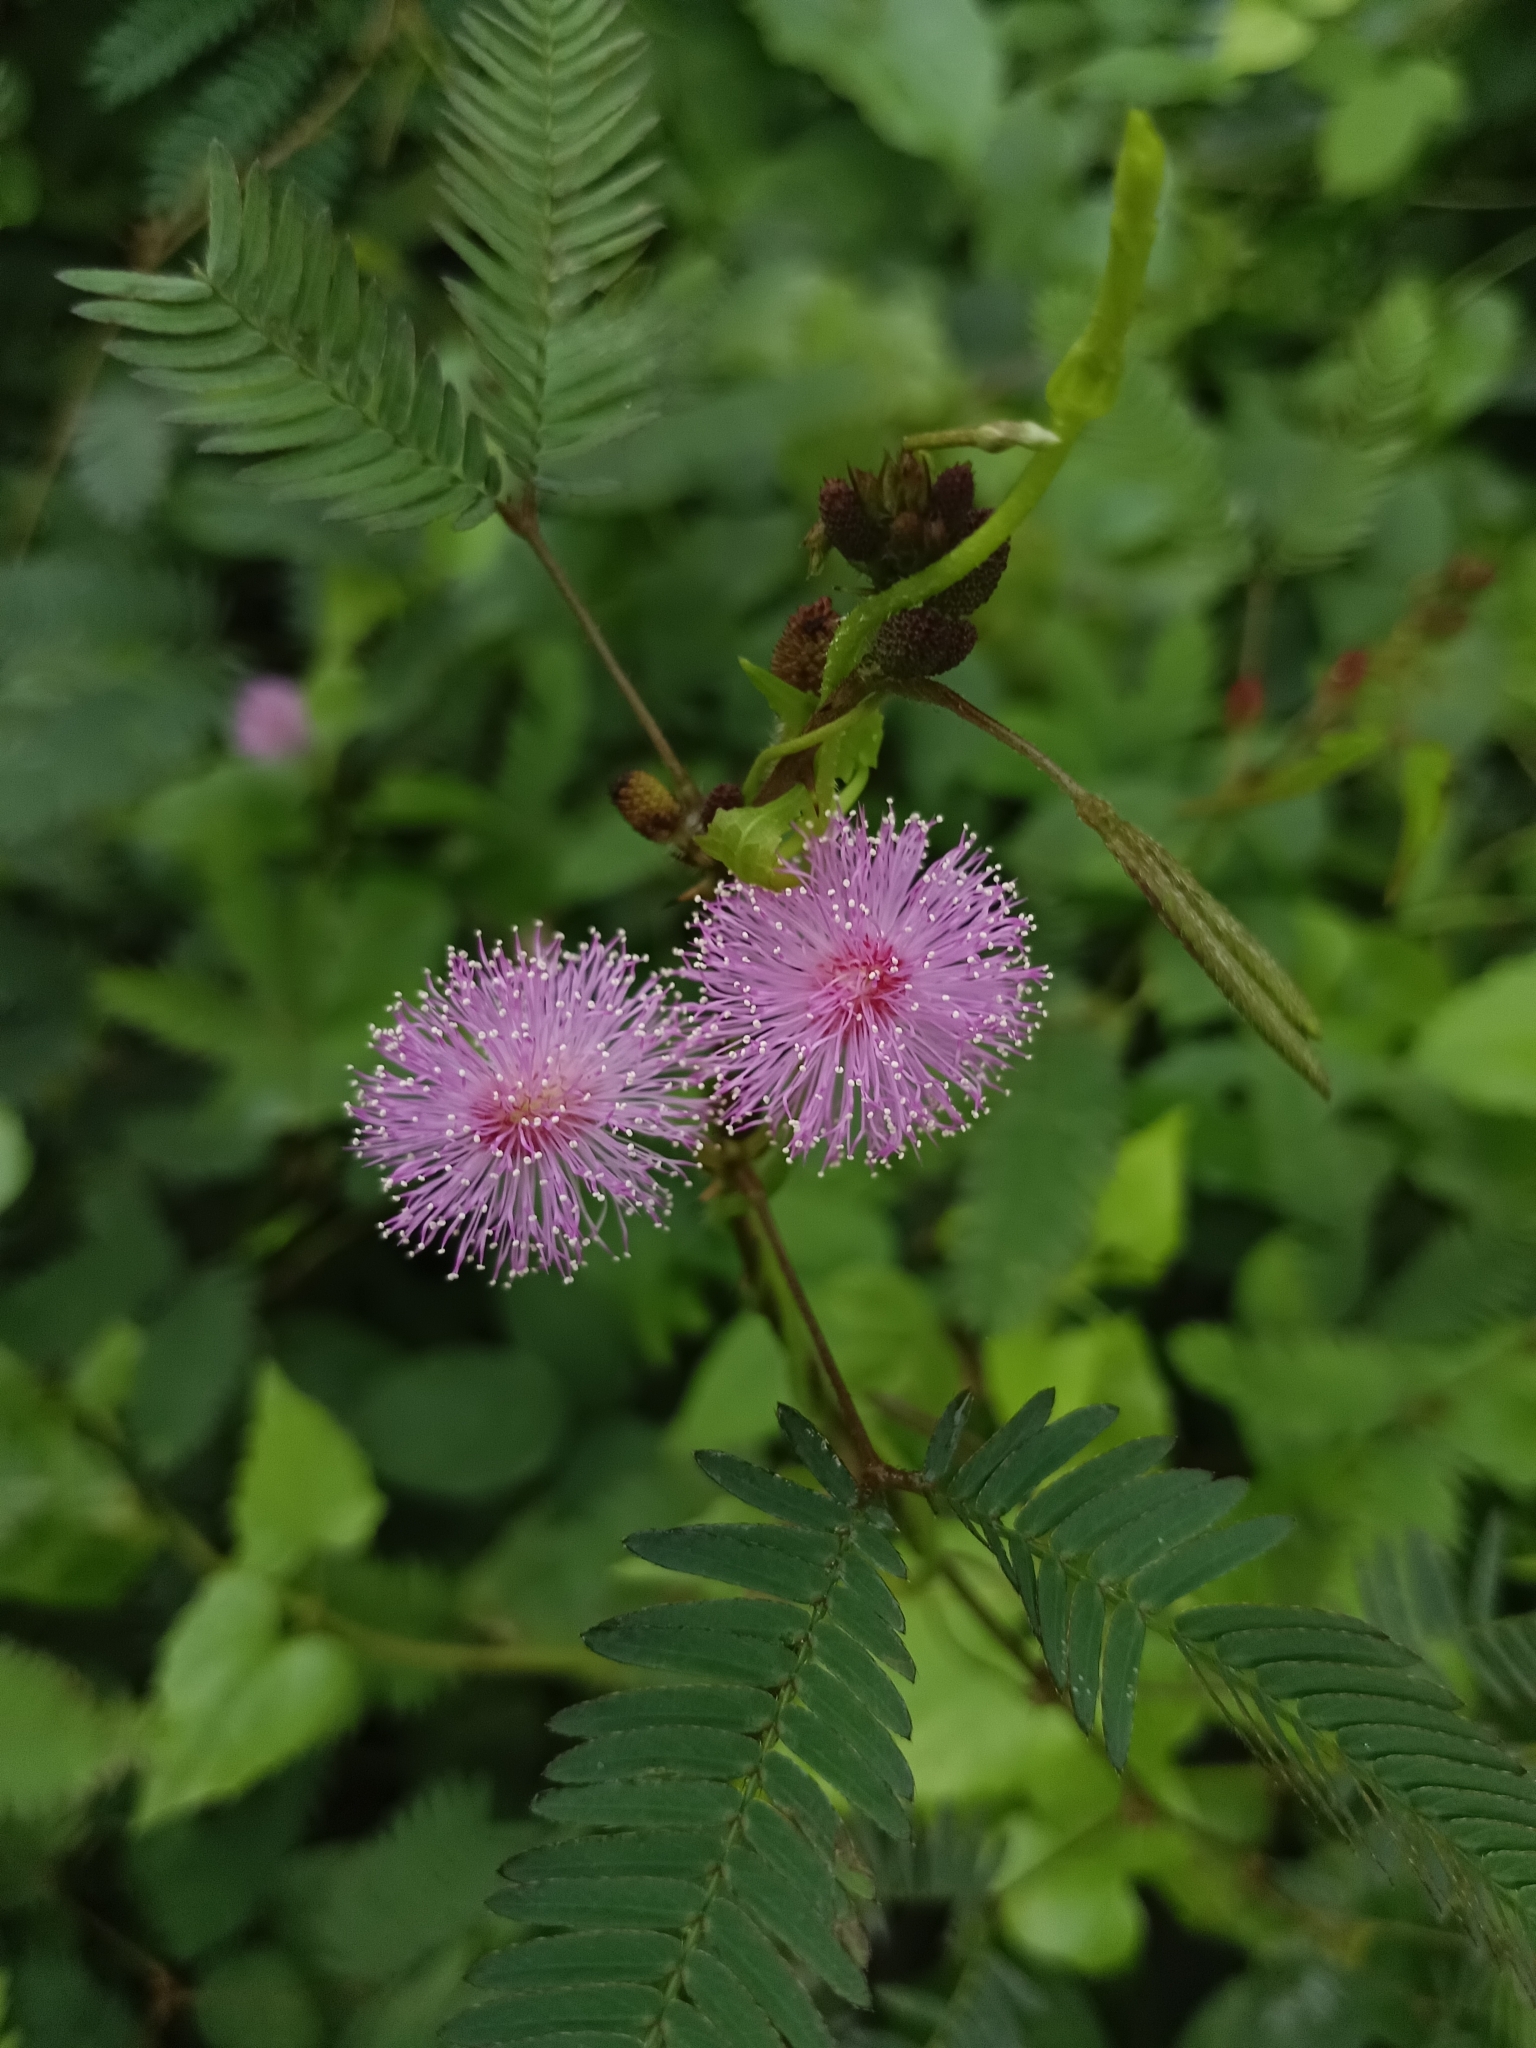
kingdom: Plantae
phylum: Tracheophyta
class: Magnoliopsida
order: Fabales
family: Fabaceae
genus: Mimosa
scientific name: Mimosa pudica
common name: Sensitive plant
